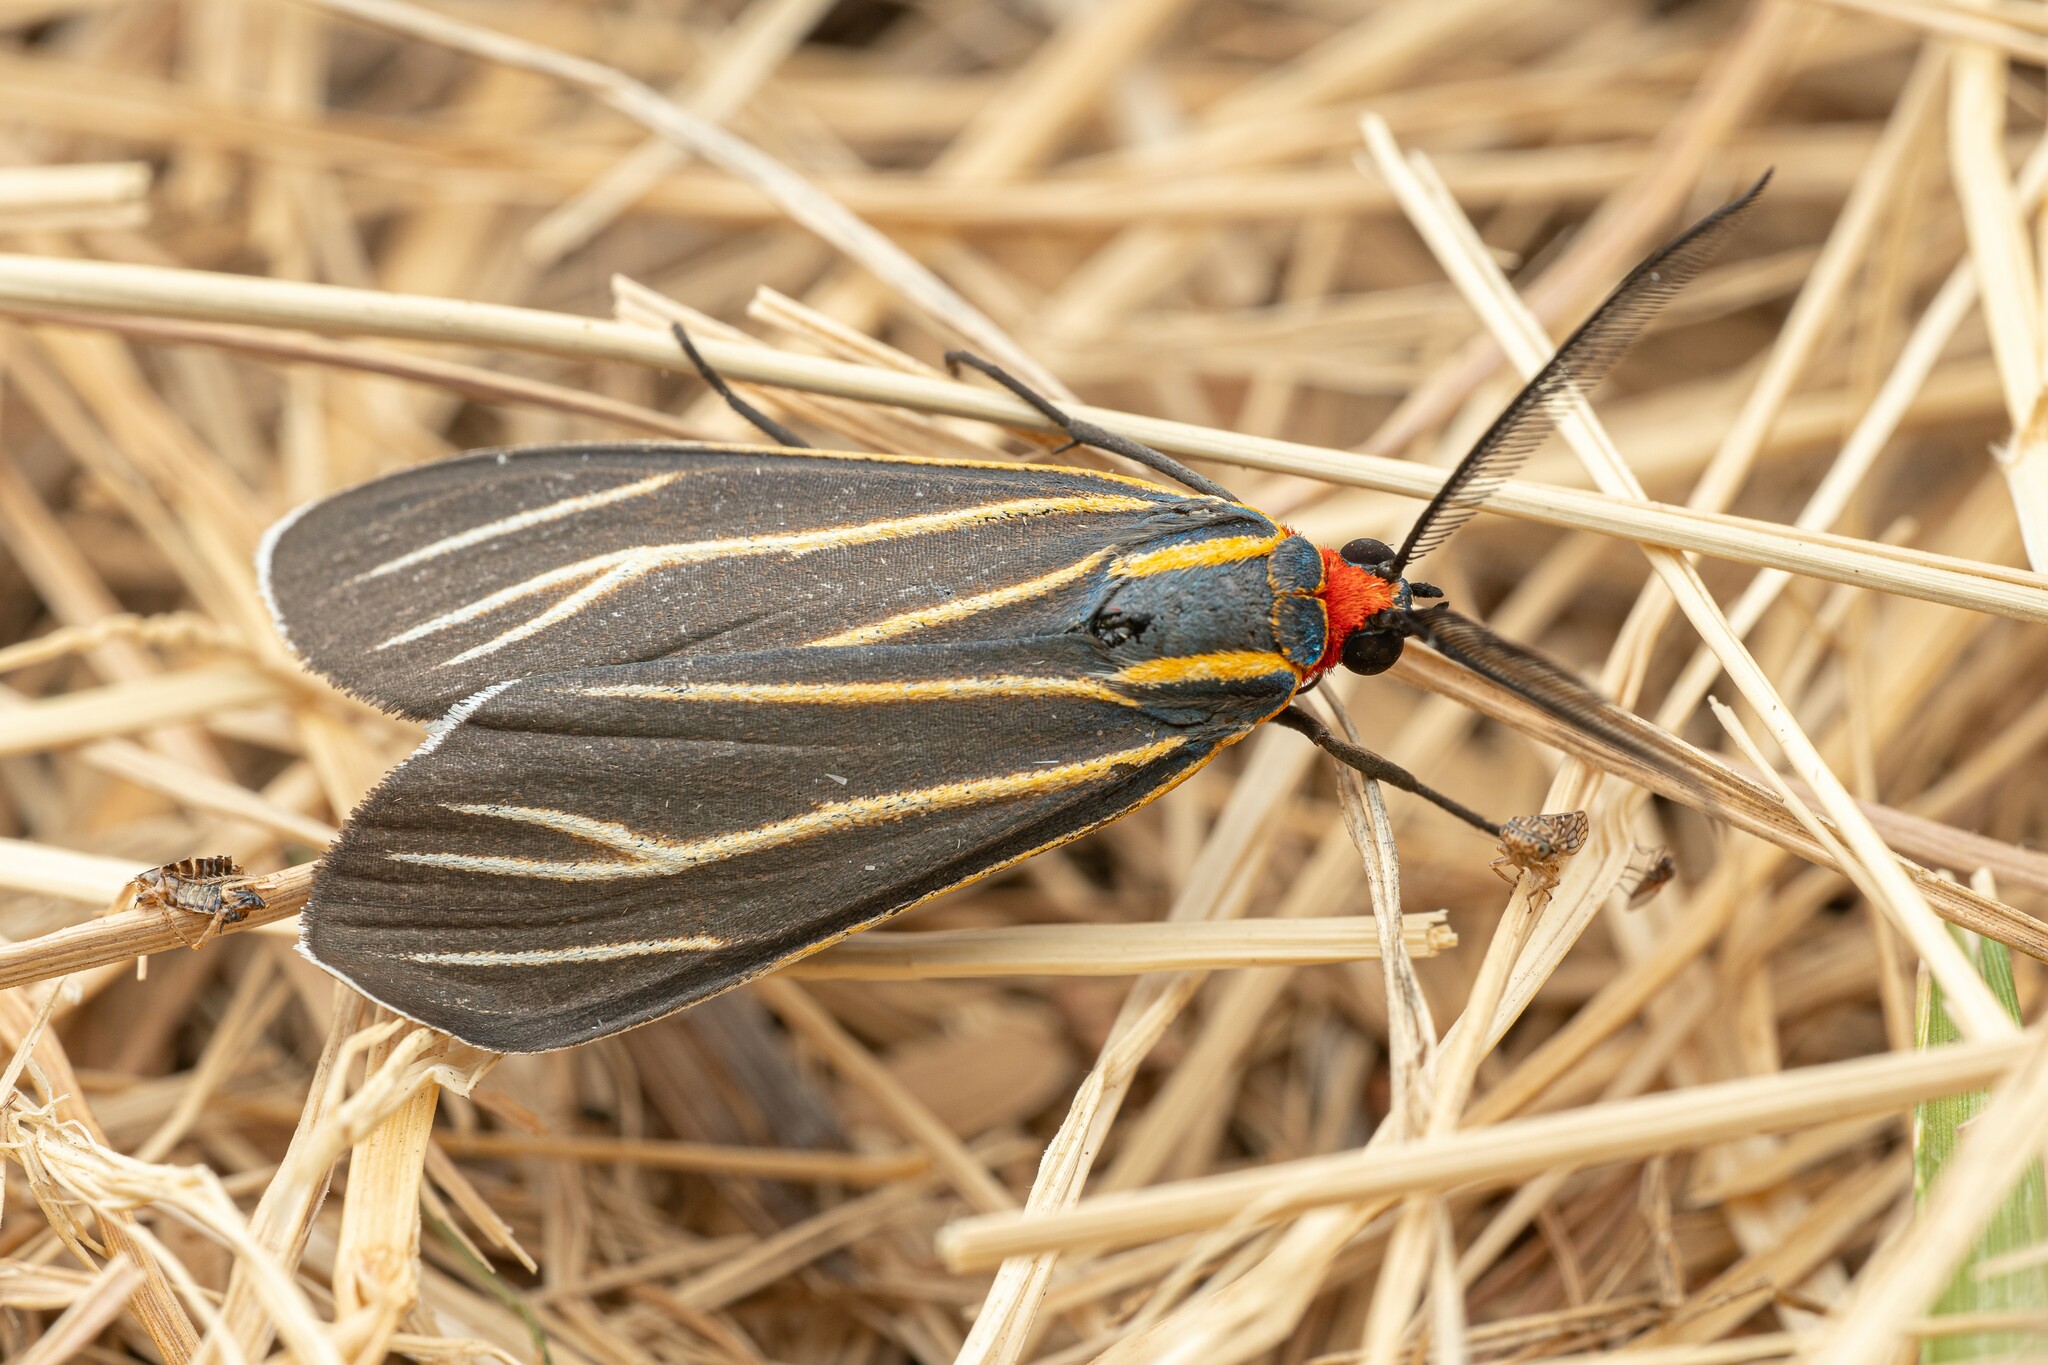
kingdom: Animalia
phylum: Arthropoda
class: Insecta
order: Lepidoptera
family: Erebidae
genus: Ctenucha
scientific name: Ctenucha venosa
